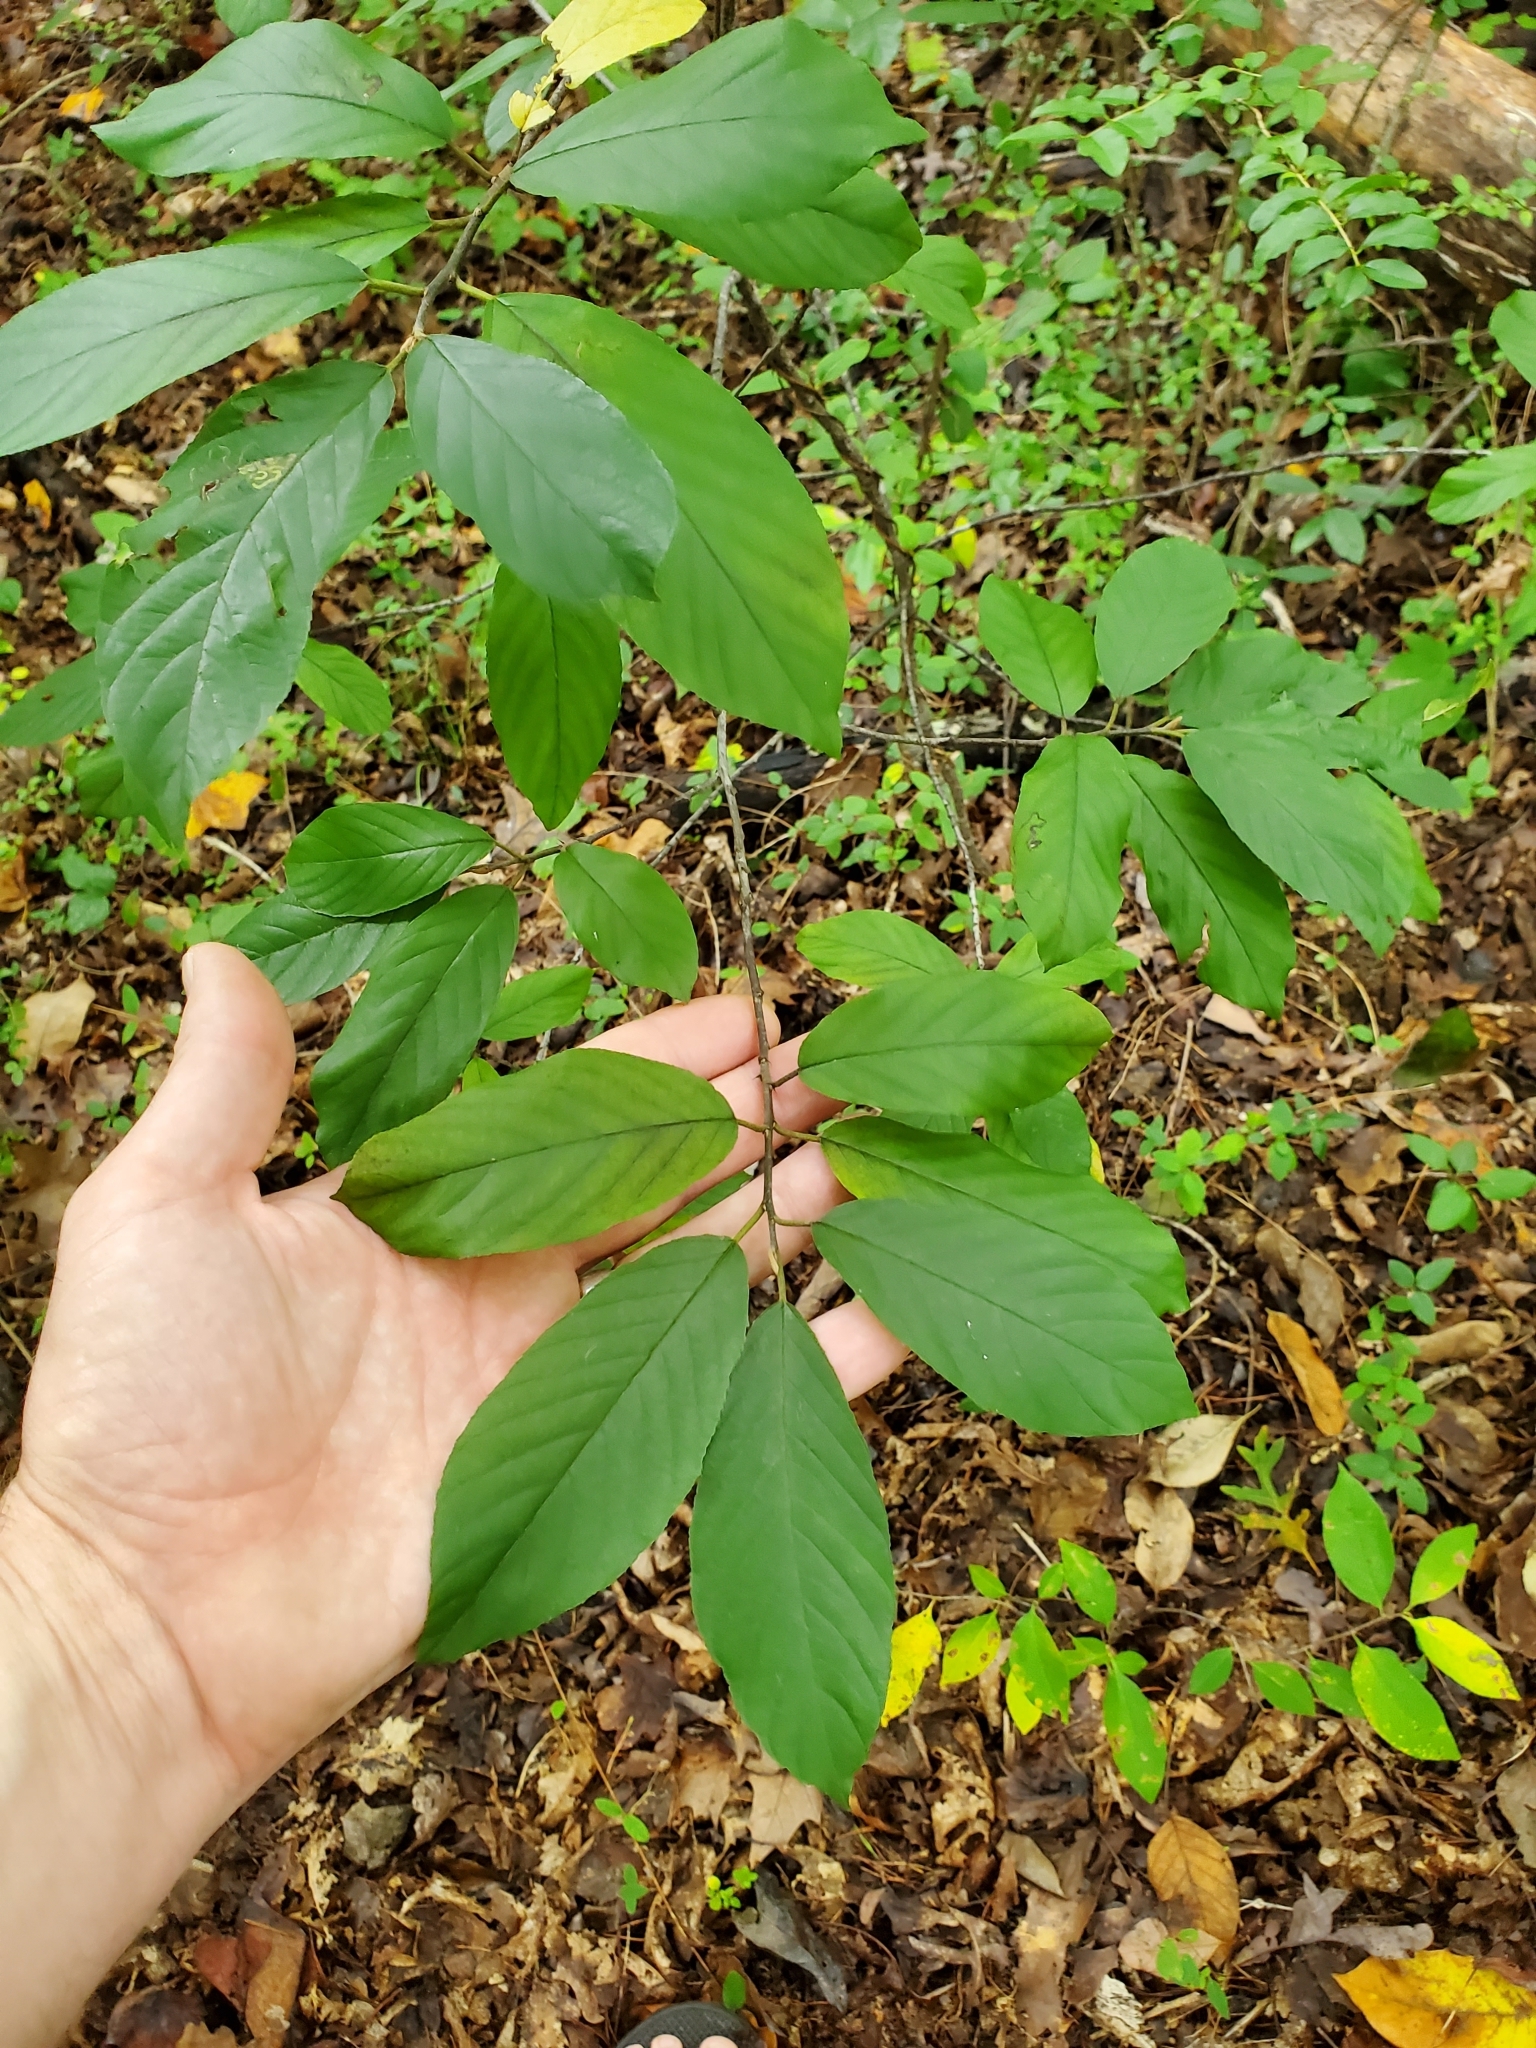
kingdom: Plantae
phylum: Tracheophyta
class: Magnoliopsida
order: Rosales
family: Rhamnaceae
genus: Frangula
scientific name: Frangula caroliniana
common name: Carolina buckthorn
